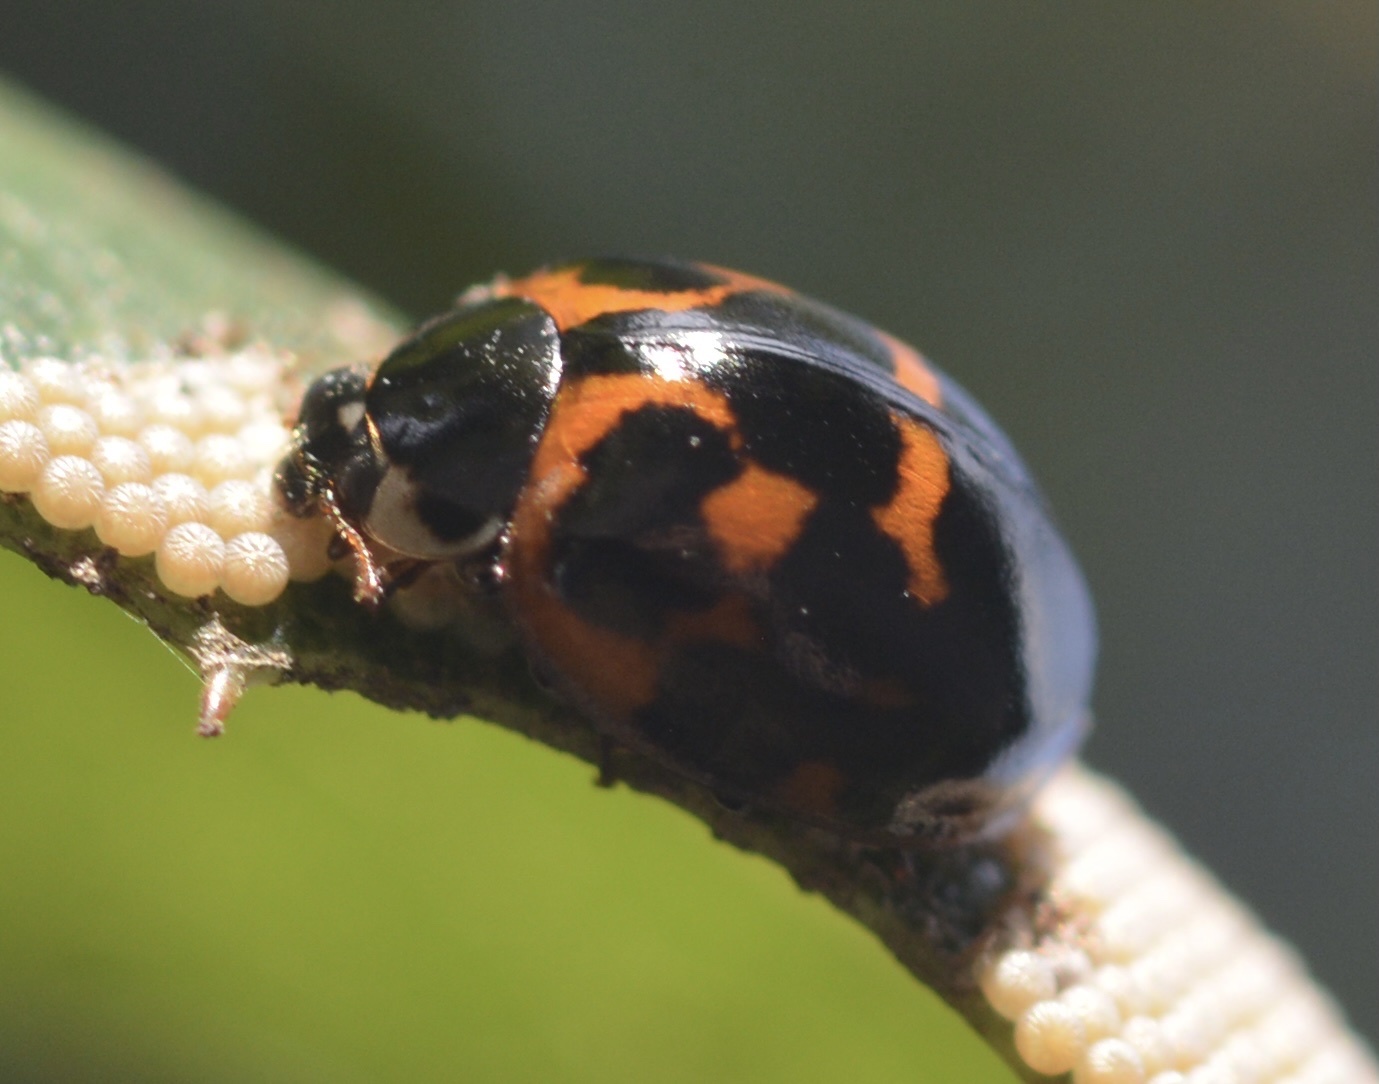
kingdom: Animalia
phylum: Arthropoda
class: Insecta
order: Coleoptera
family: Coccinellidae
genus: Harmonia
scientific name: Harmonia axyridis
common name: Harlequin ladybird
